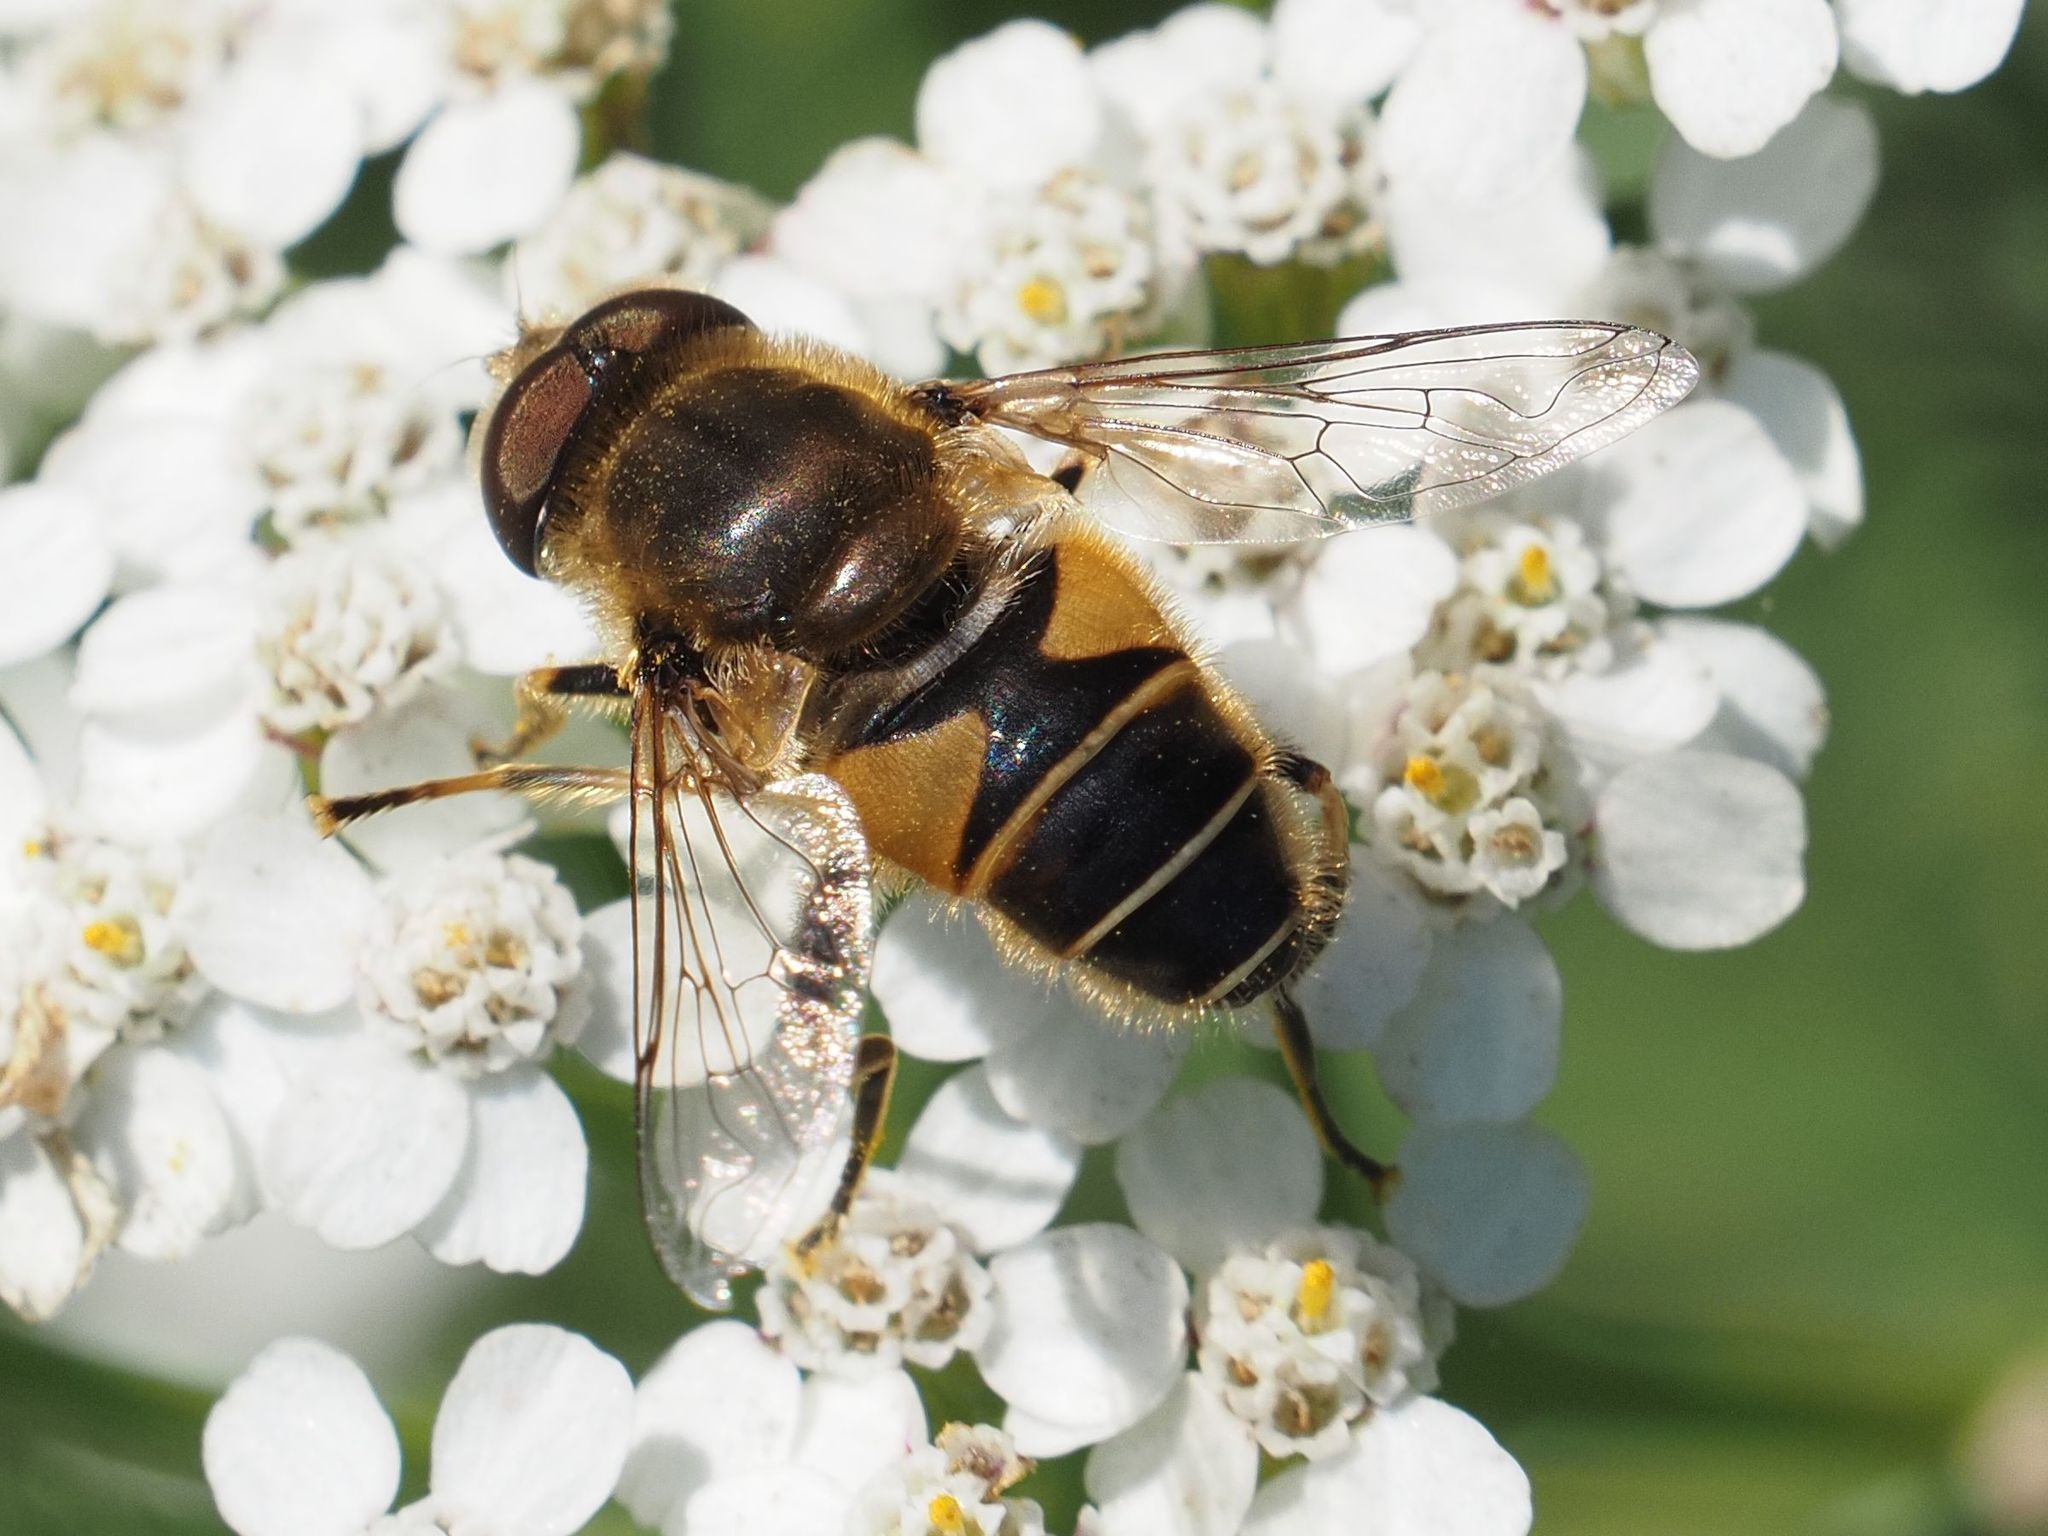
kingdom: Animalia
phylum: Arthropoda
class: Insecta
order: Diptera
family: Syrphidae
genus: Eristalis
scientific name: Eristalis nemorum
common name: Orange-spined drone fly
